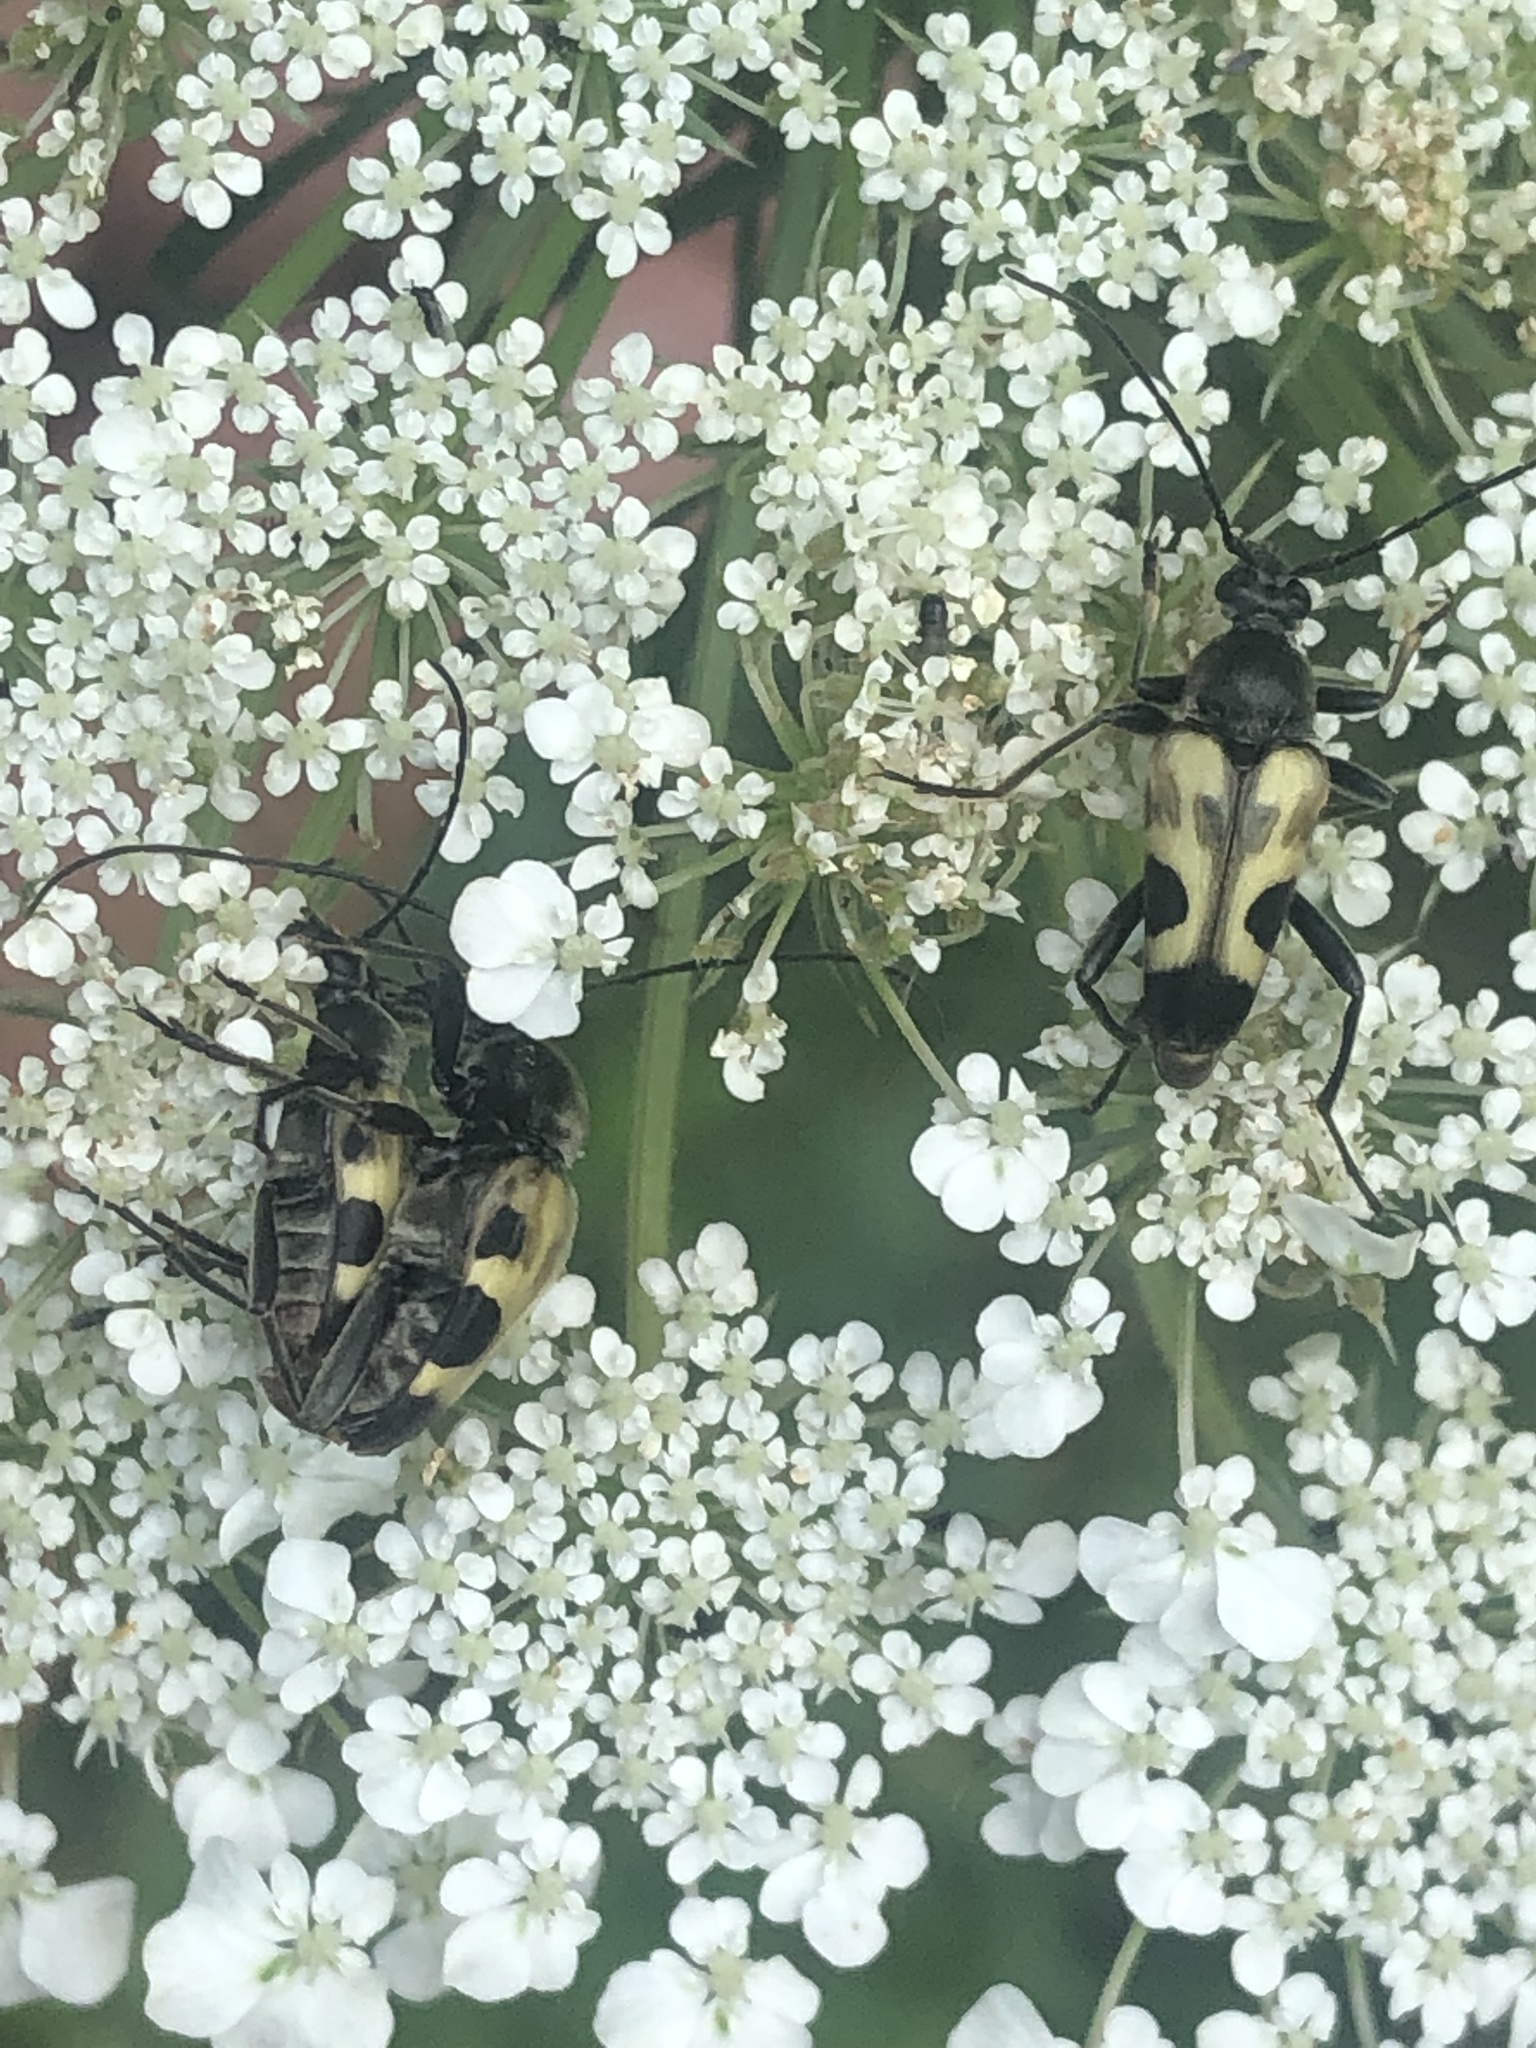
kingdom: Animalia
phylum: Arthropoda
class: Insecta
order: Coleoptera
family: Cerambycidae
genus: Judolia
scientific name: Judolia cordifera
